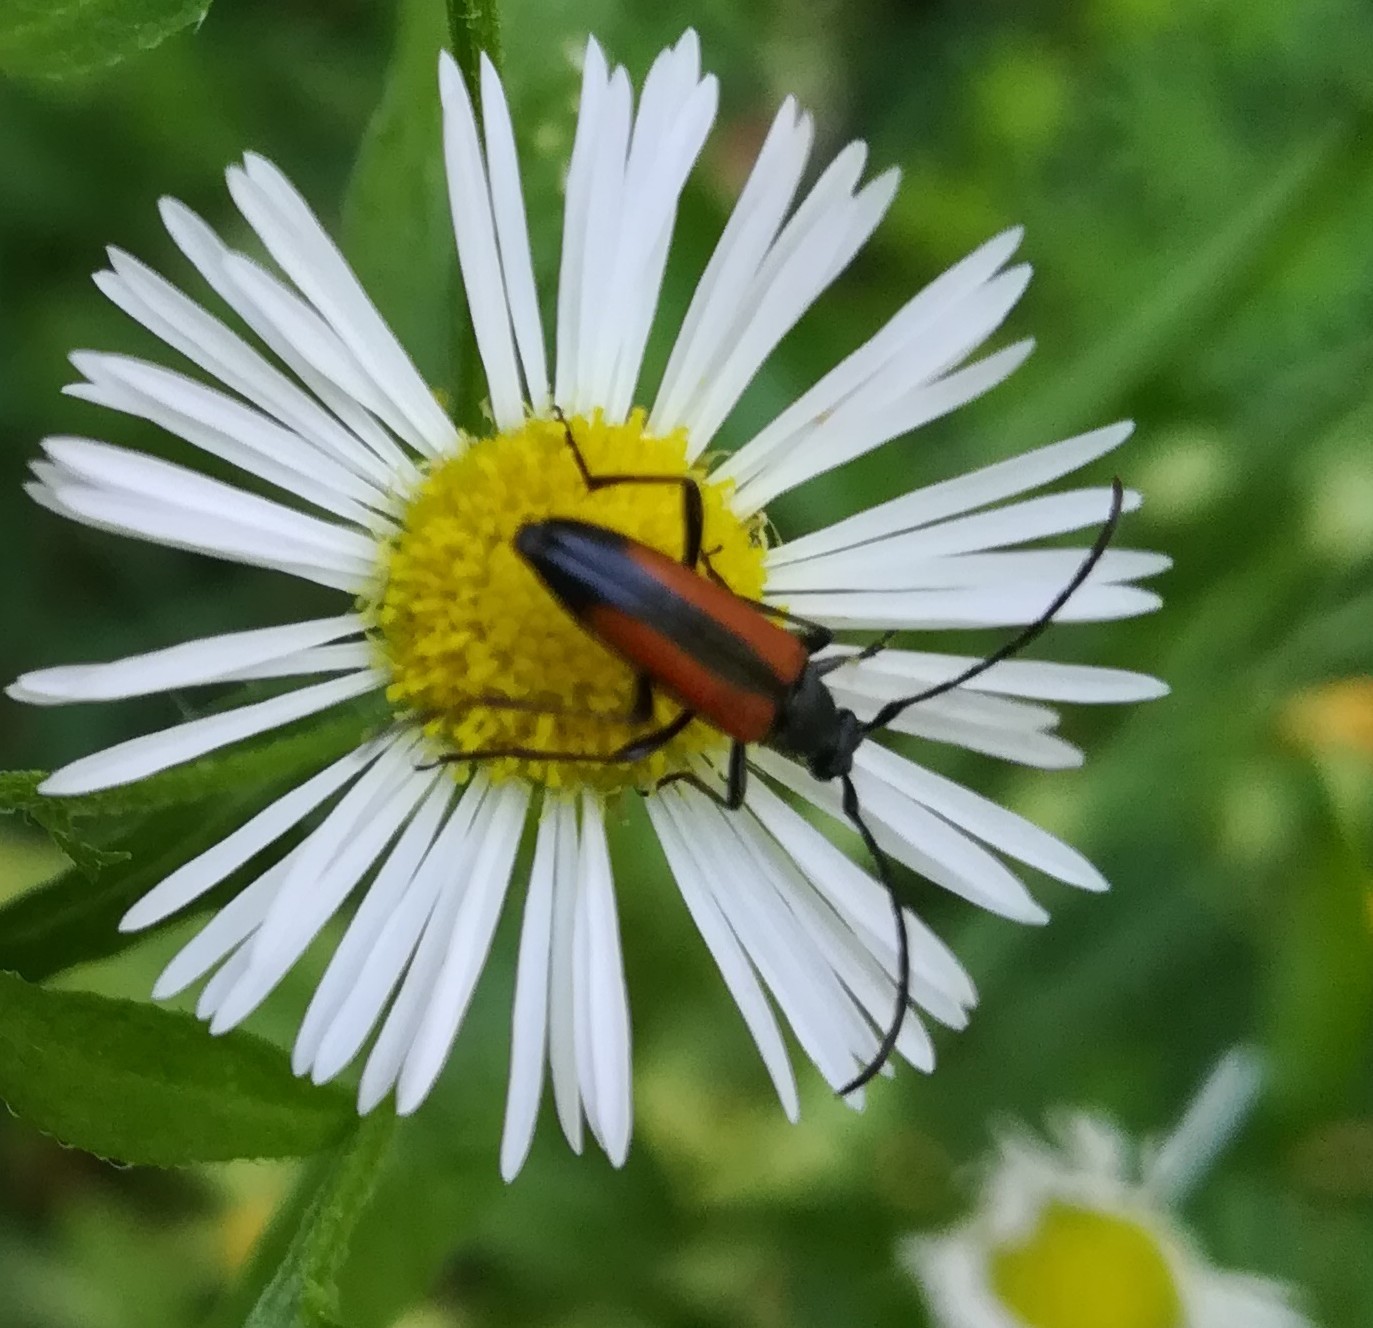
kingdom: Animalia
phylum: Arthropoda
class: Insecta
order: Coleoptera
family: Cerambycidae
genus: Stenurella
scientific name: Stenurella melanura
